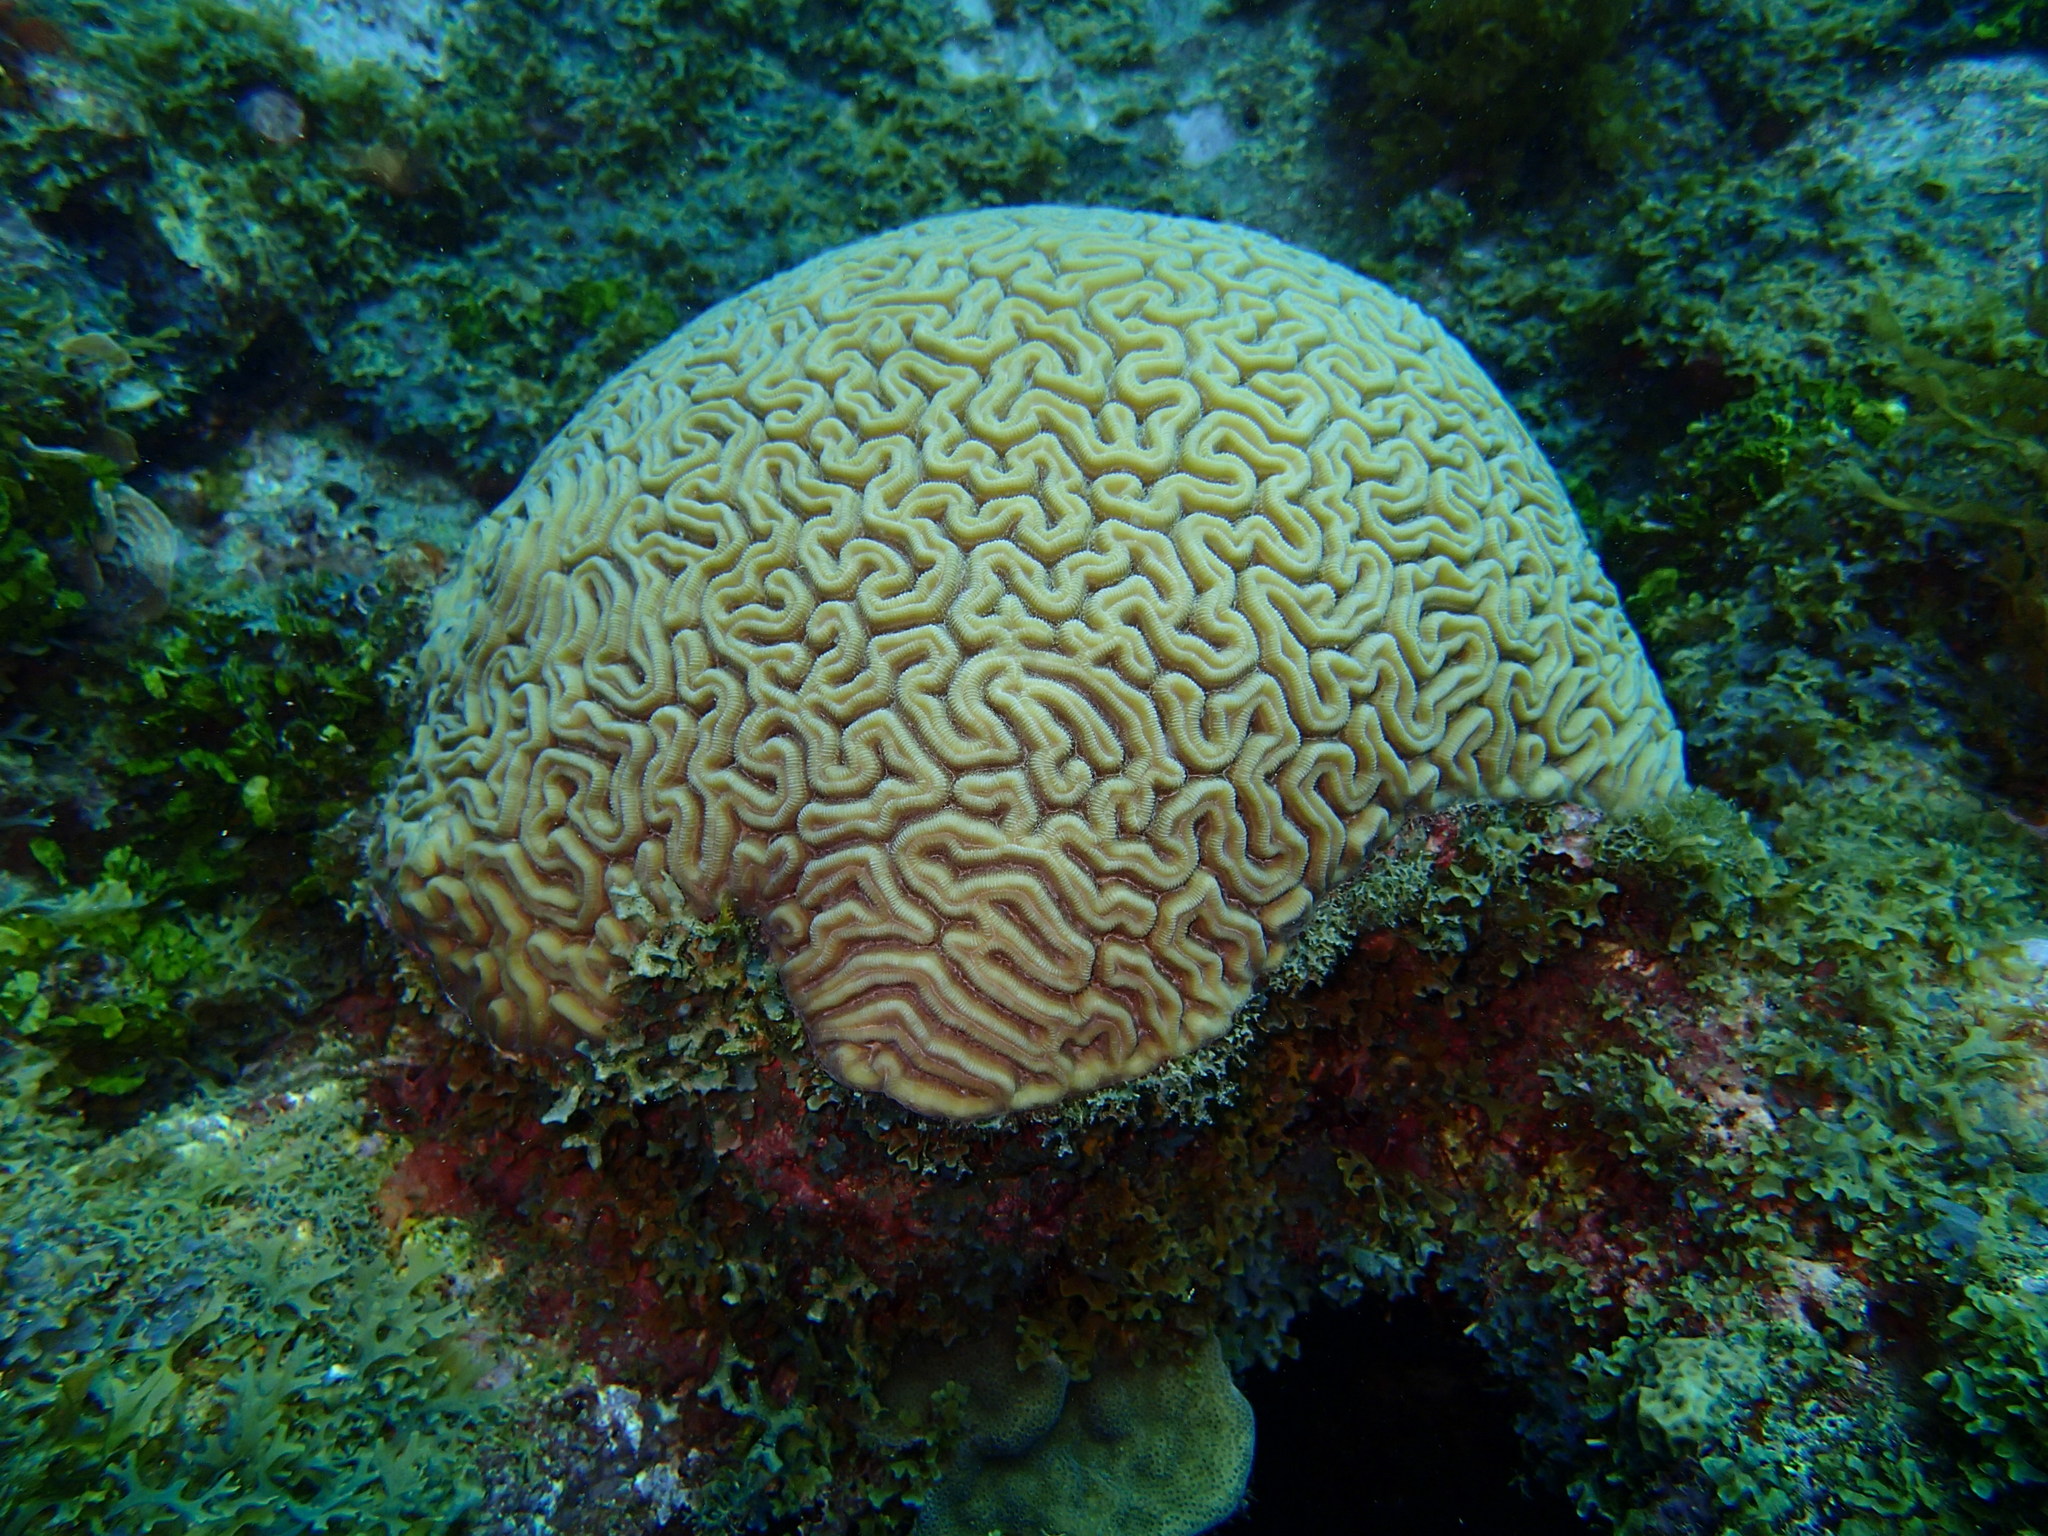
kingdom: Animalia
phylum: Cnidaria
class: Anthozoa
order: Scleractinia
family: Faviidae
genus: Diploria
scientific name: Diploria labyrinthiformis
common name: Grooved brain coral
